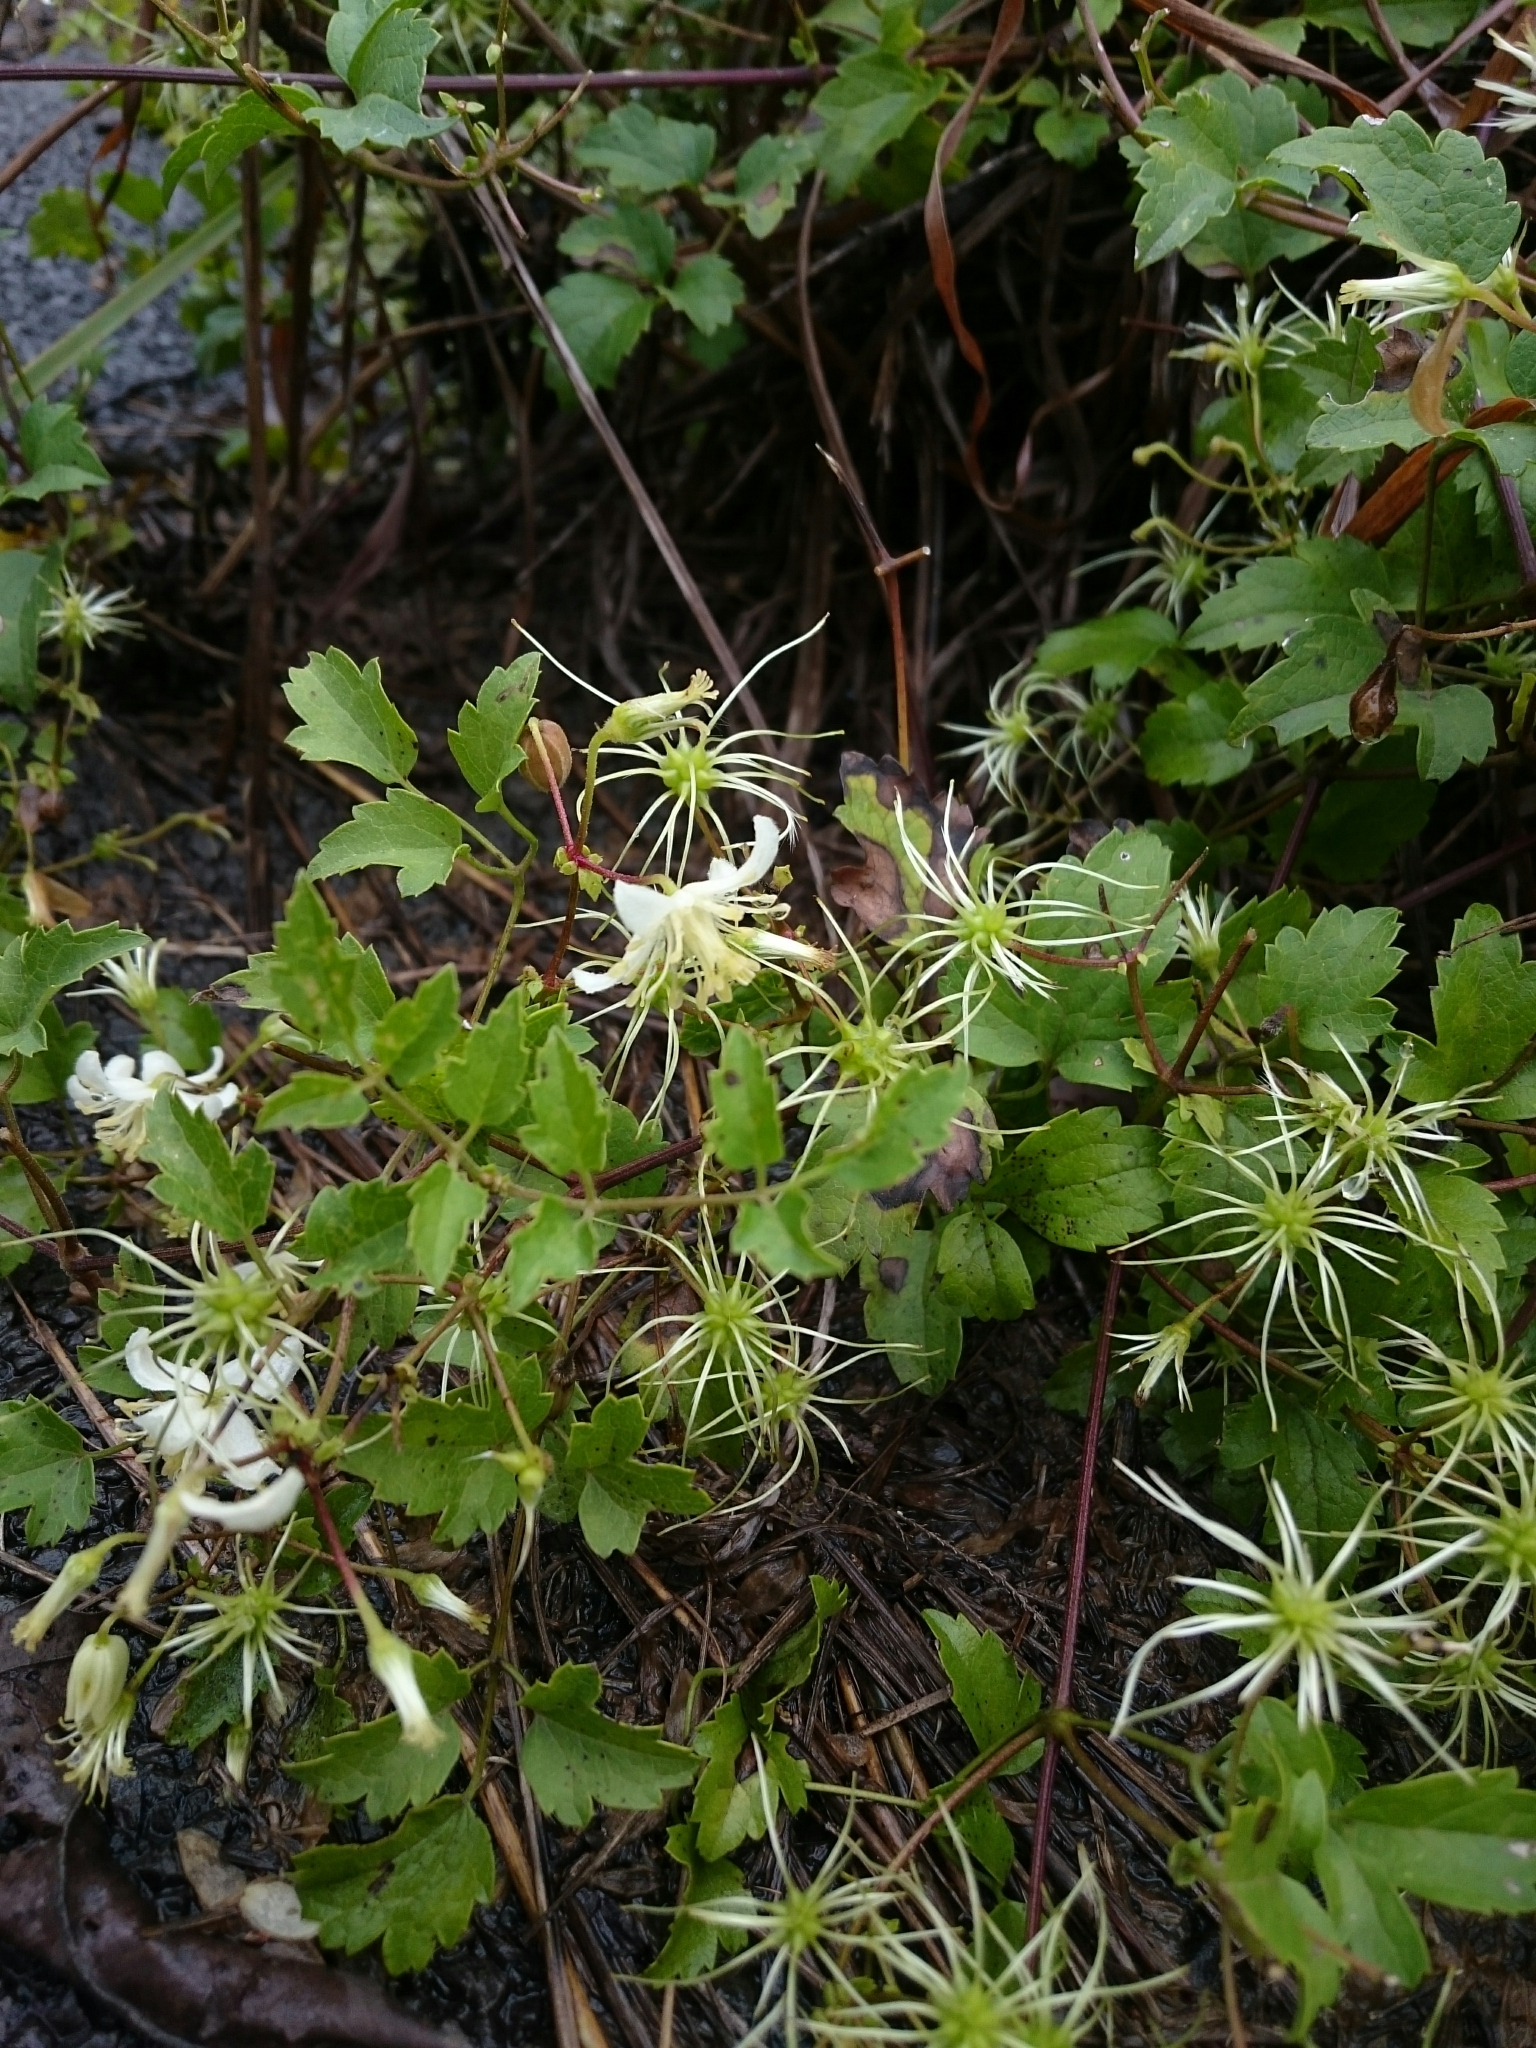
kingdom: Plantae
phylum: Tracheophyta
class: Magnoliopsida
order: Ranunculales
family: Ranunculaceae
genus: Clematis
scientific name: Clematis brachiata
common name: Traveler's-joy
